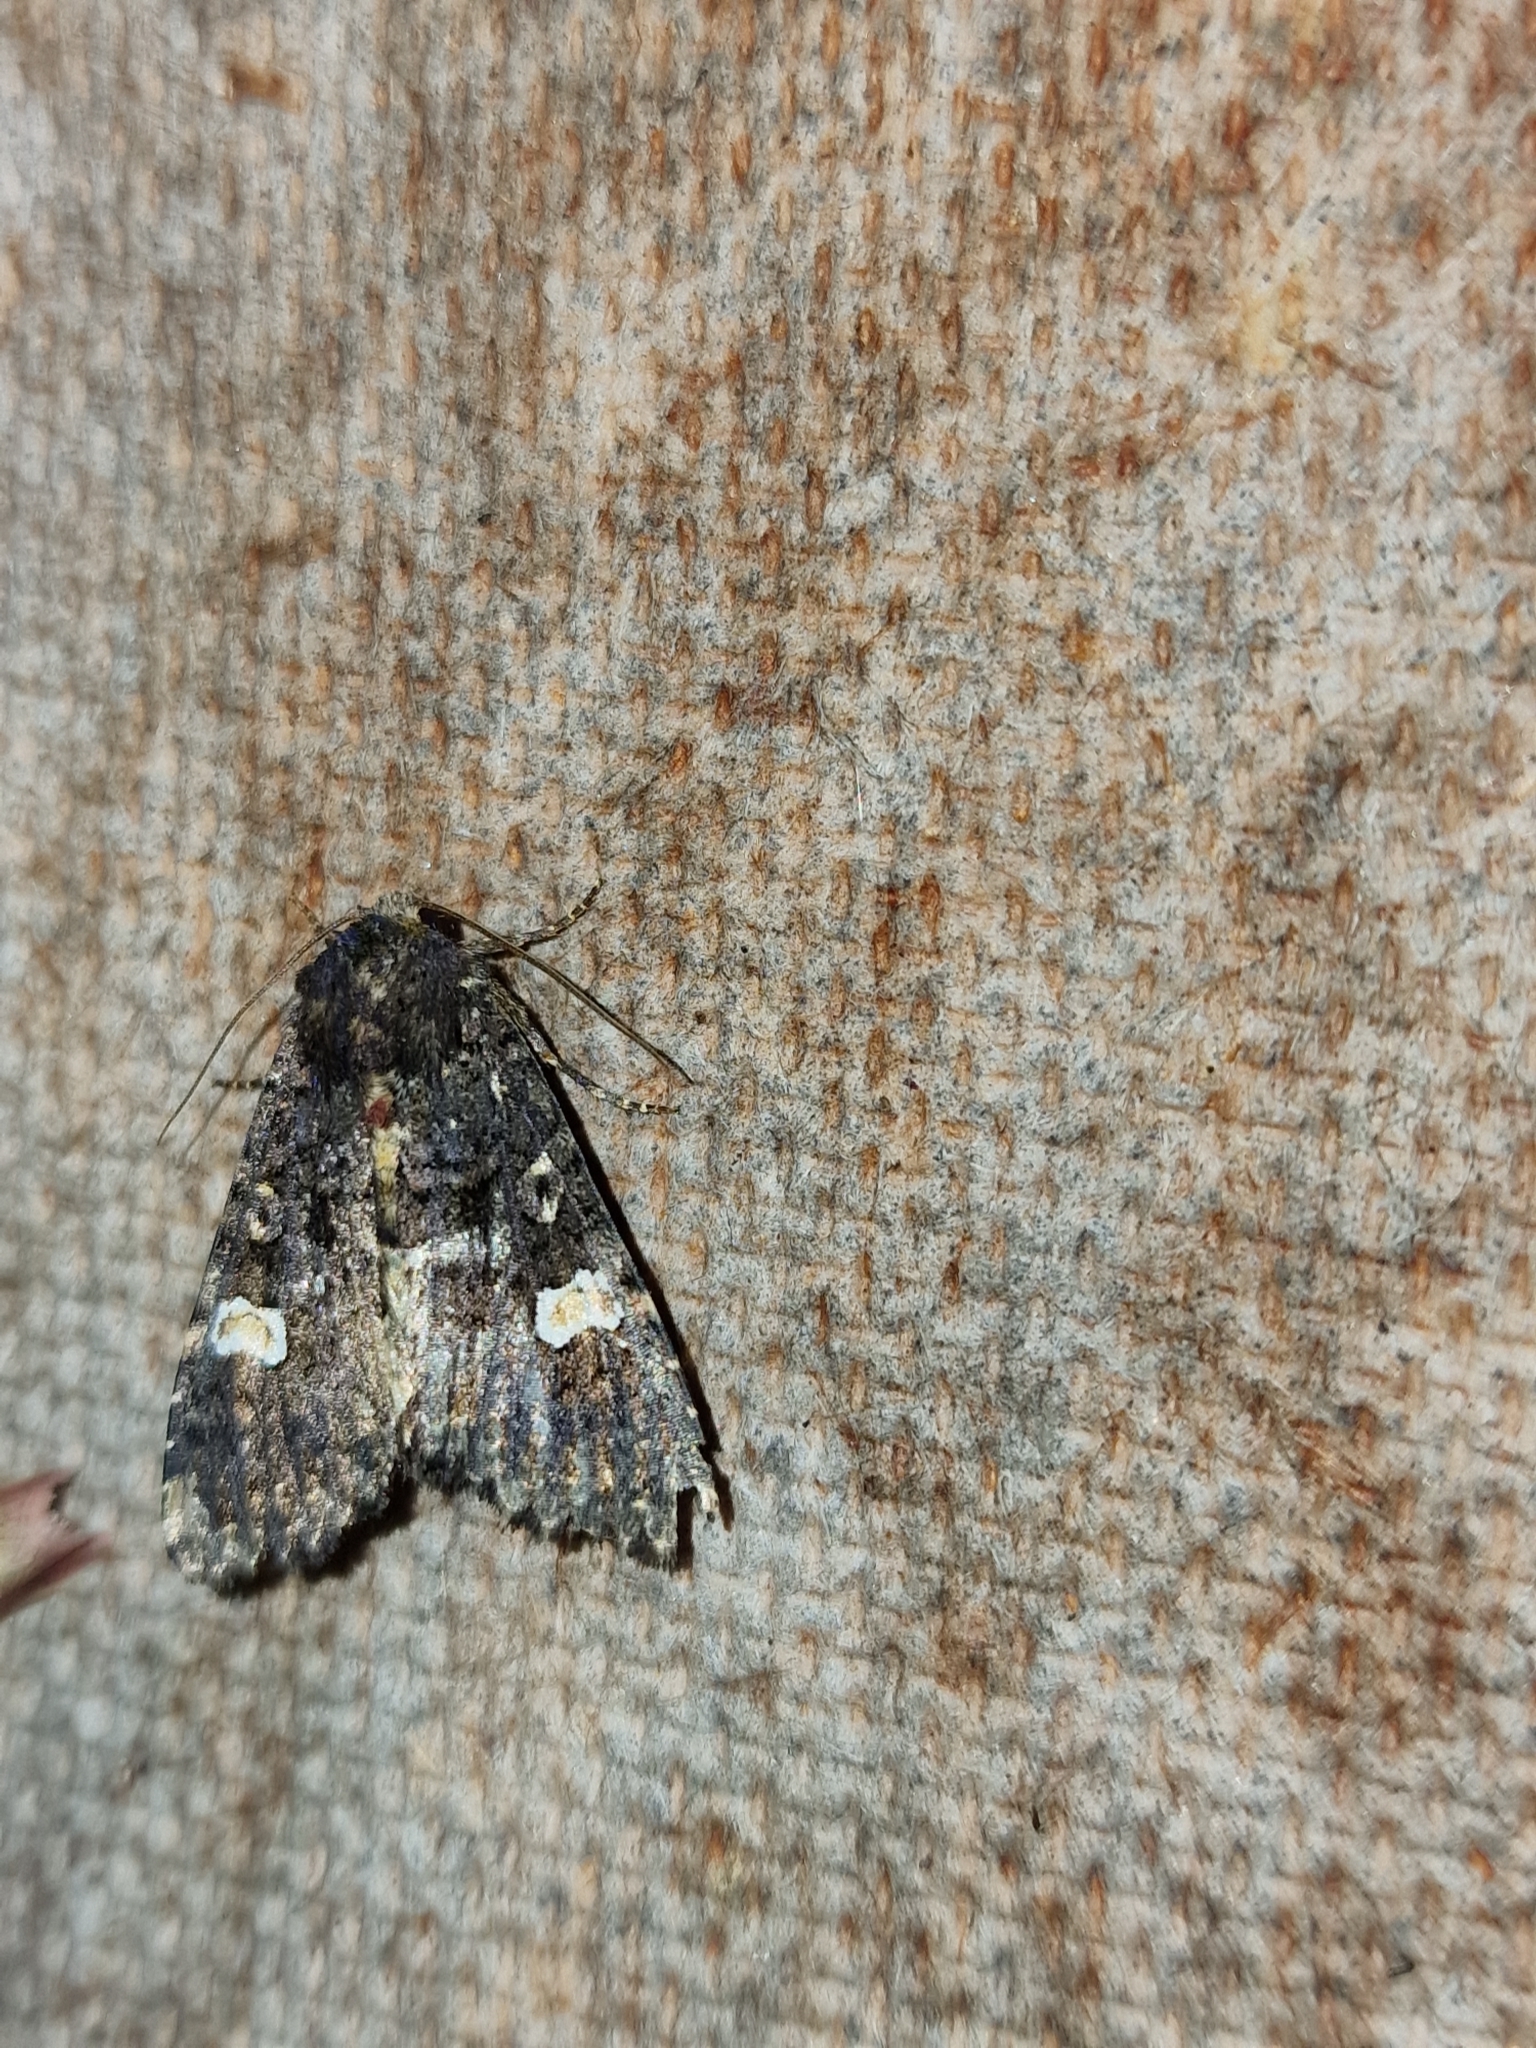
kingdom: Animalia
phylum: Arthropoda
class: Insecta
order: Lepidoptera
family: Noctuidae
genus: Melanchra
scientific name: Melanchra persicariae
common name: Dot moth
